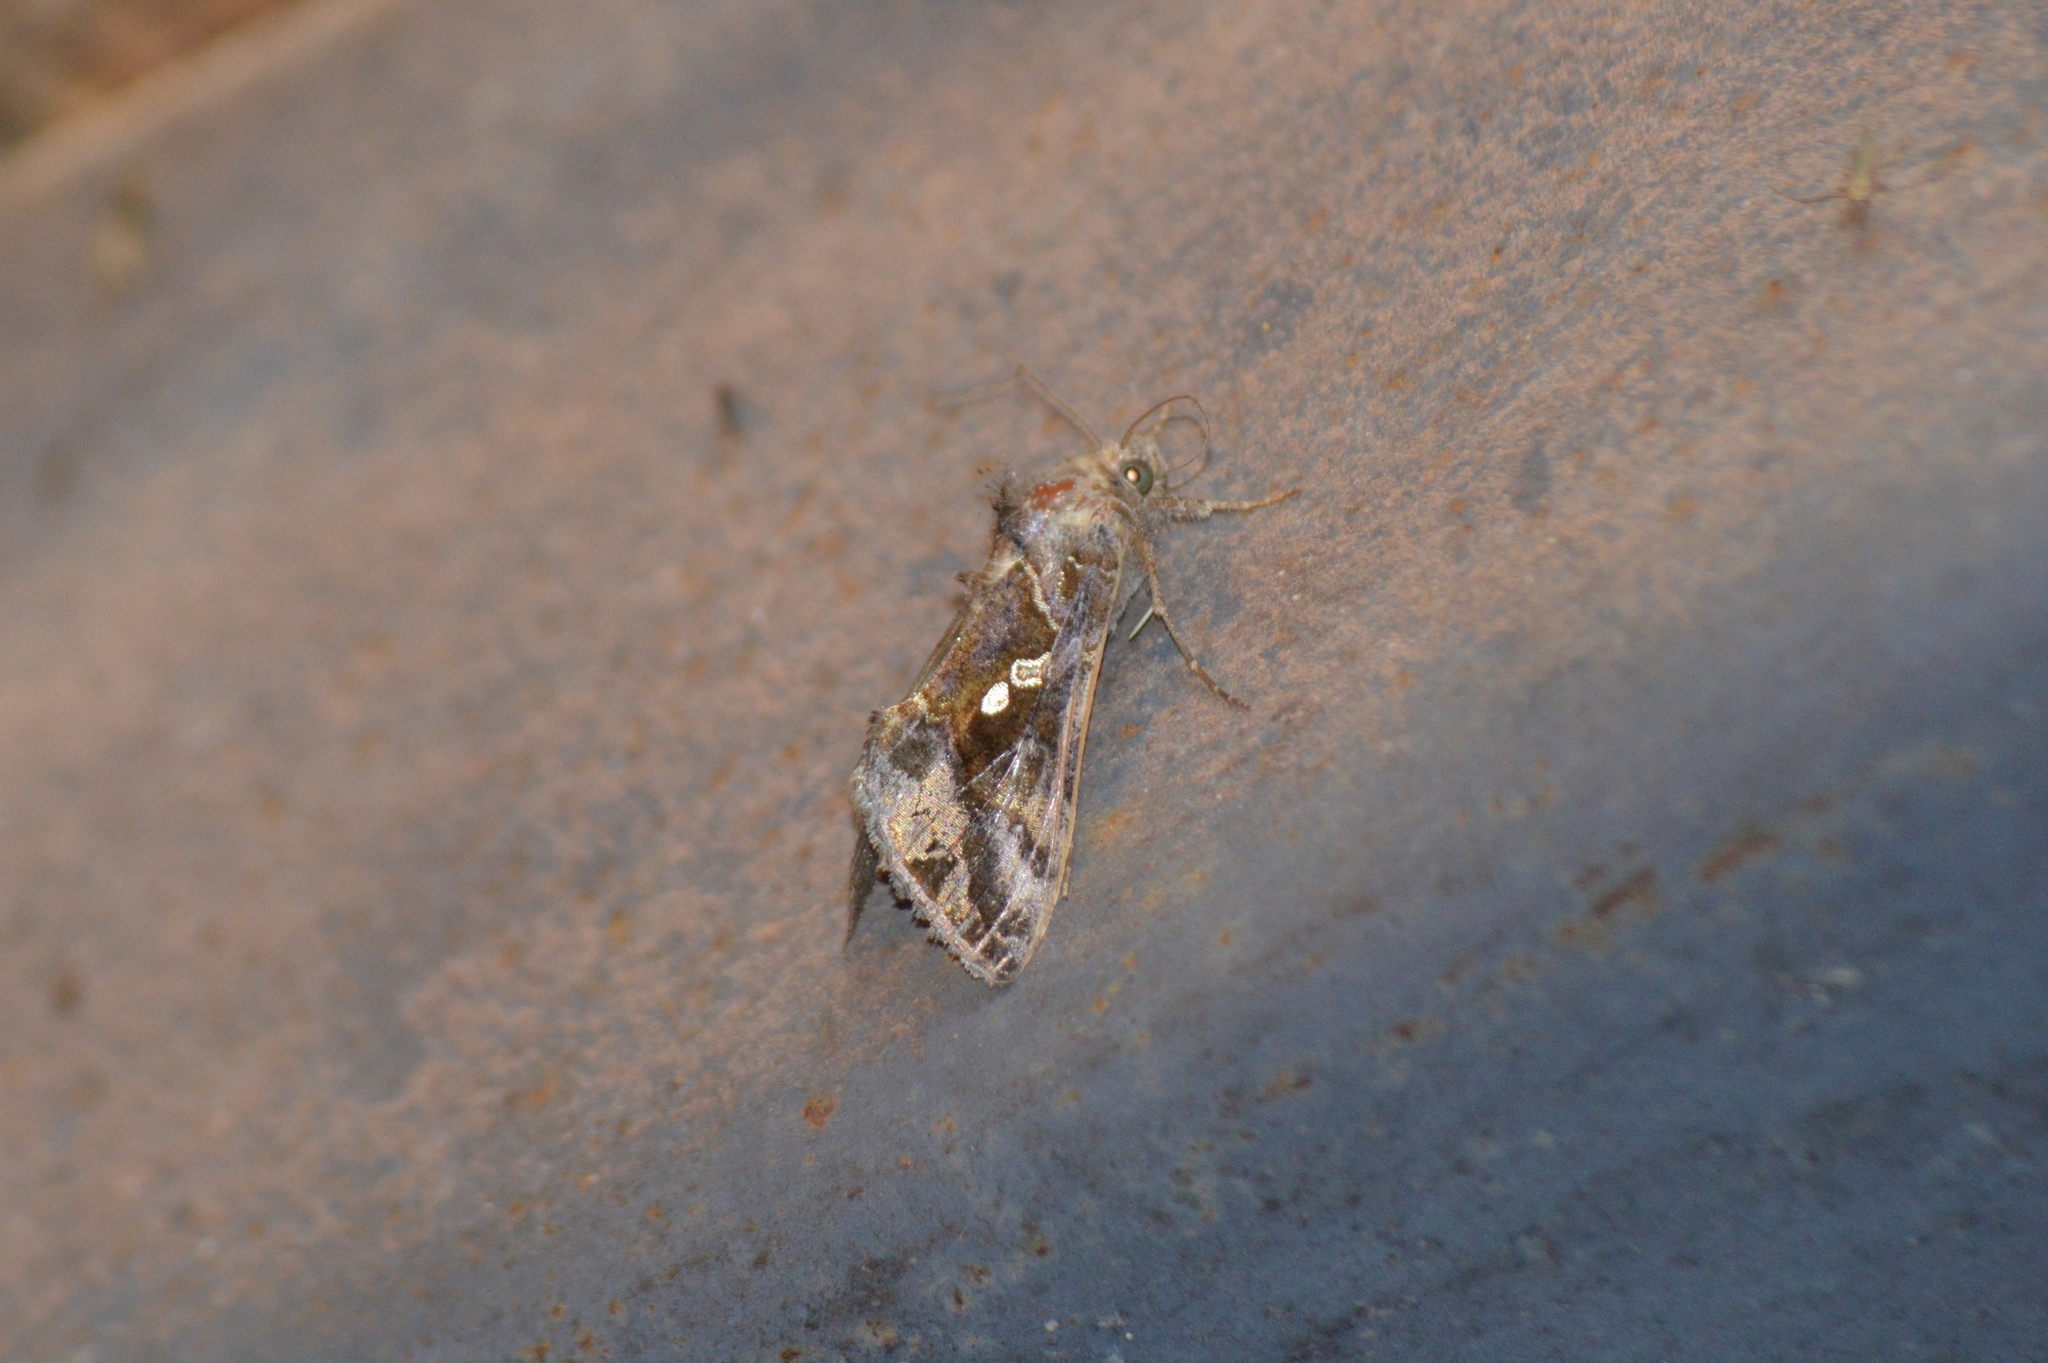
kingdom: Animalia
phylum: Arthropoda
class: Insecta
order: Lepidoptera
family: Noctuidae
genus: Chrysodeixis
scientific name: Chrysodeixis includens
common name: Cutworm moth
